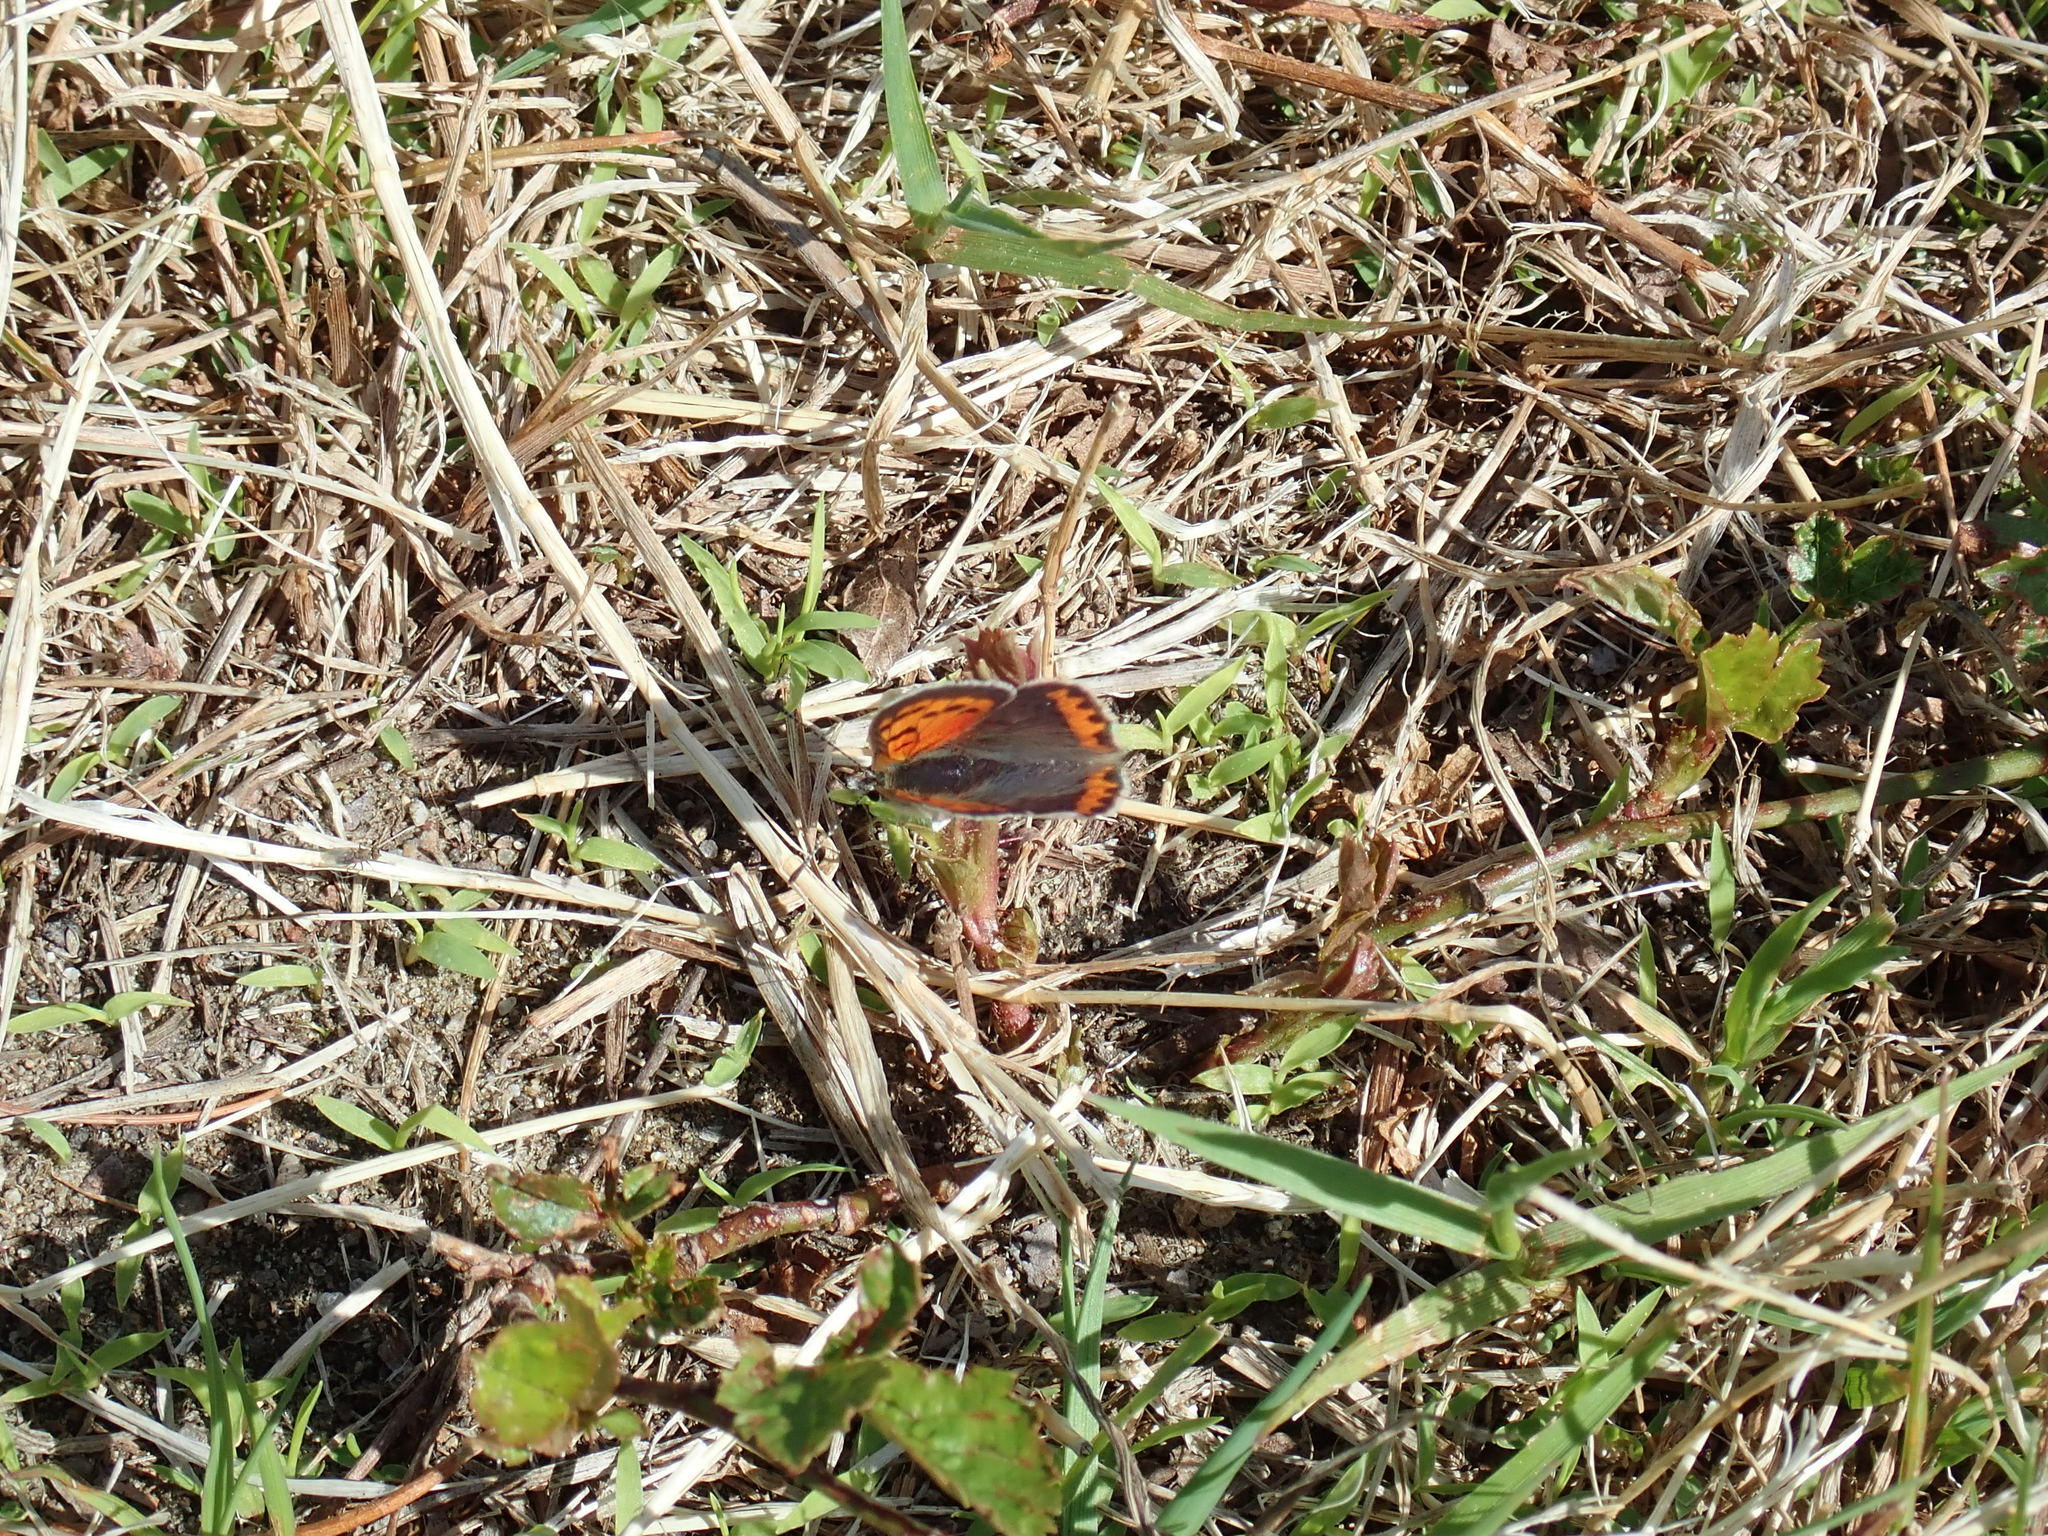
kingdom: Animalia
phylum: Arthropoda
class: Insecta
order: Lepidoptera
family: Lycaenidae
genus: Lycaena
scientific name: Lycaena hypophlaeas
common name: American copper
